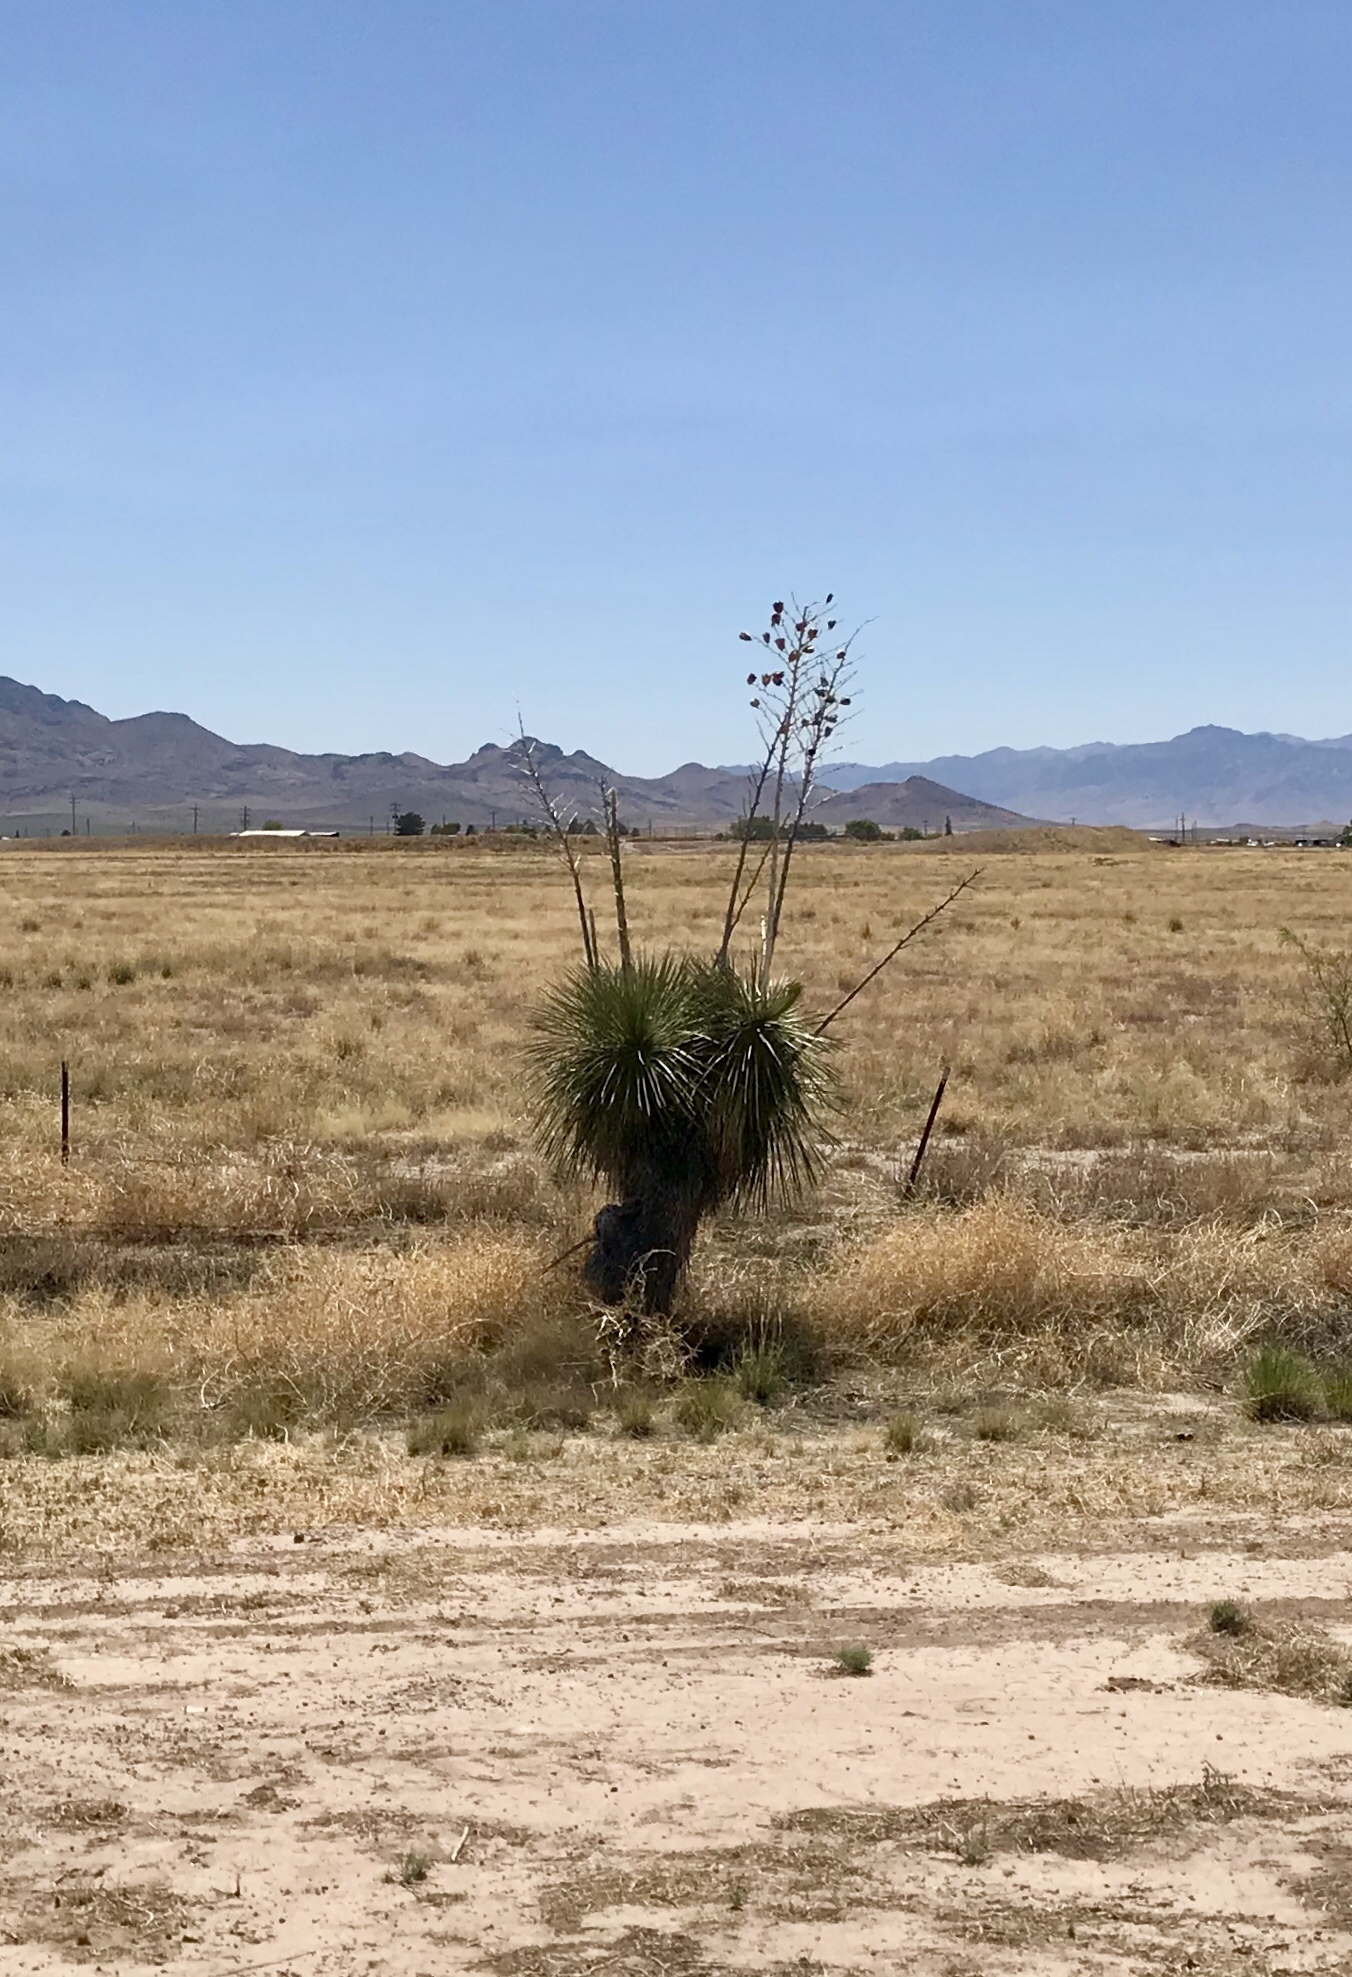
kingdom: Plantae
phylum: Tracheophyta
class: Liliopsida
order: Asparagales
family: Asparagaceae
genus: Yucca
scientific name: Yucca elata
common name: Palmella
